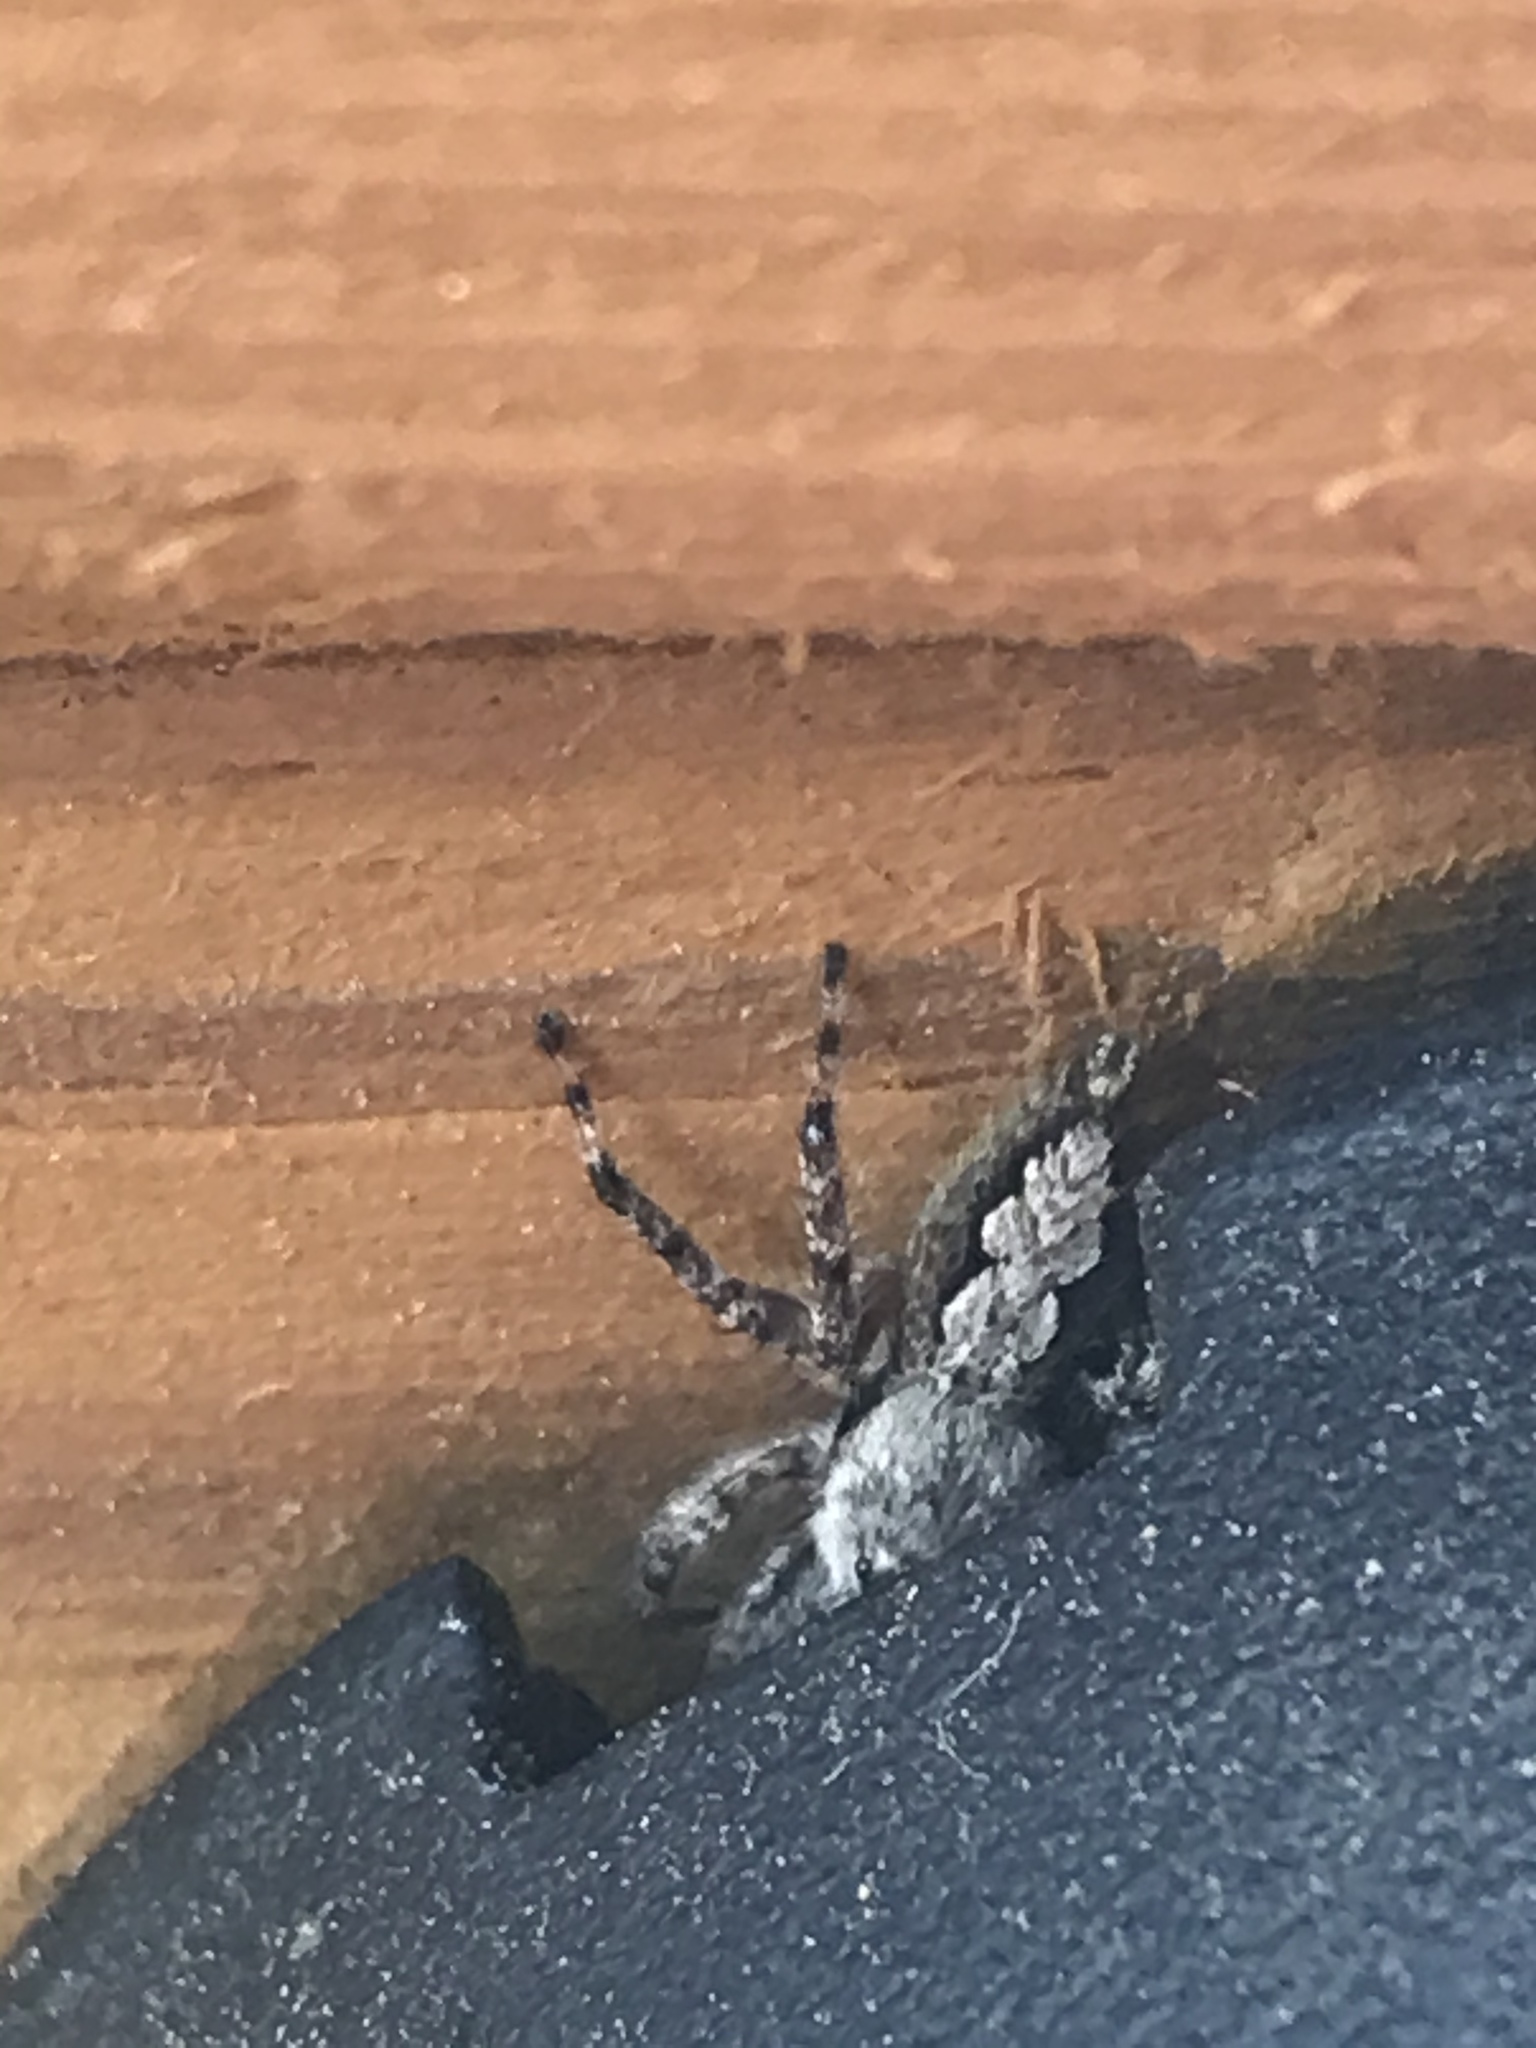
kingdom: Animalia
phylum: Arthropoda
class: Arachnida
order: Araneae
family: Salticidae
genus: Platycryptus
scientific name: Platycryptus undatus
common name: Tan jumping spider
